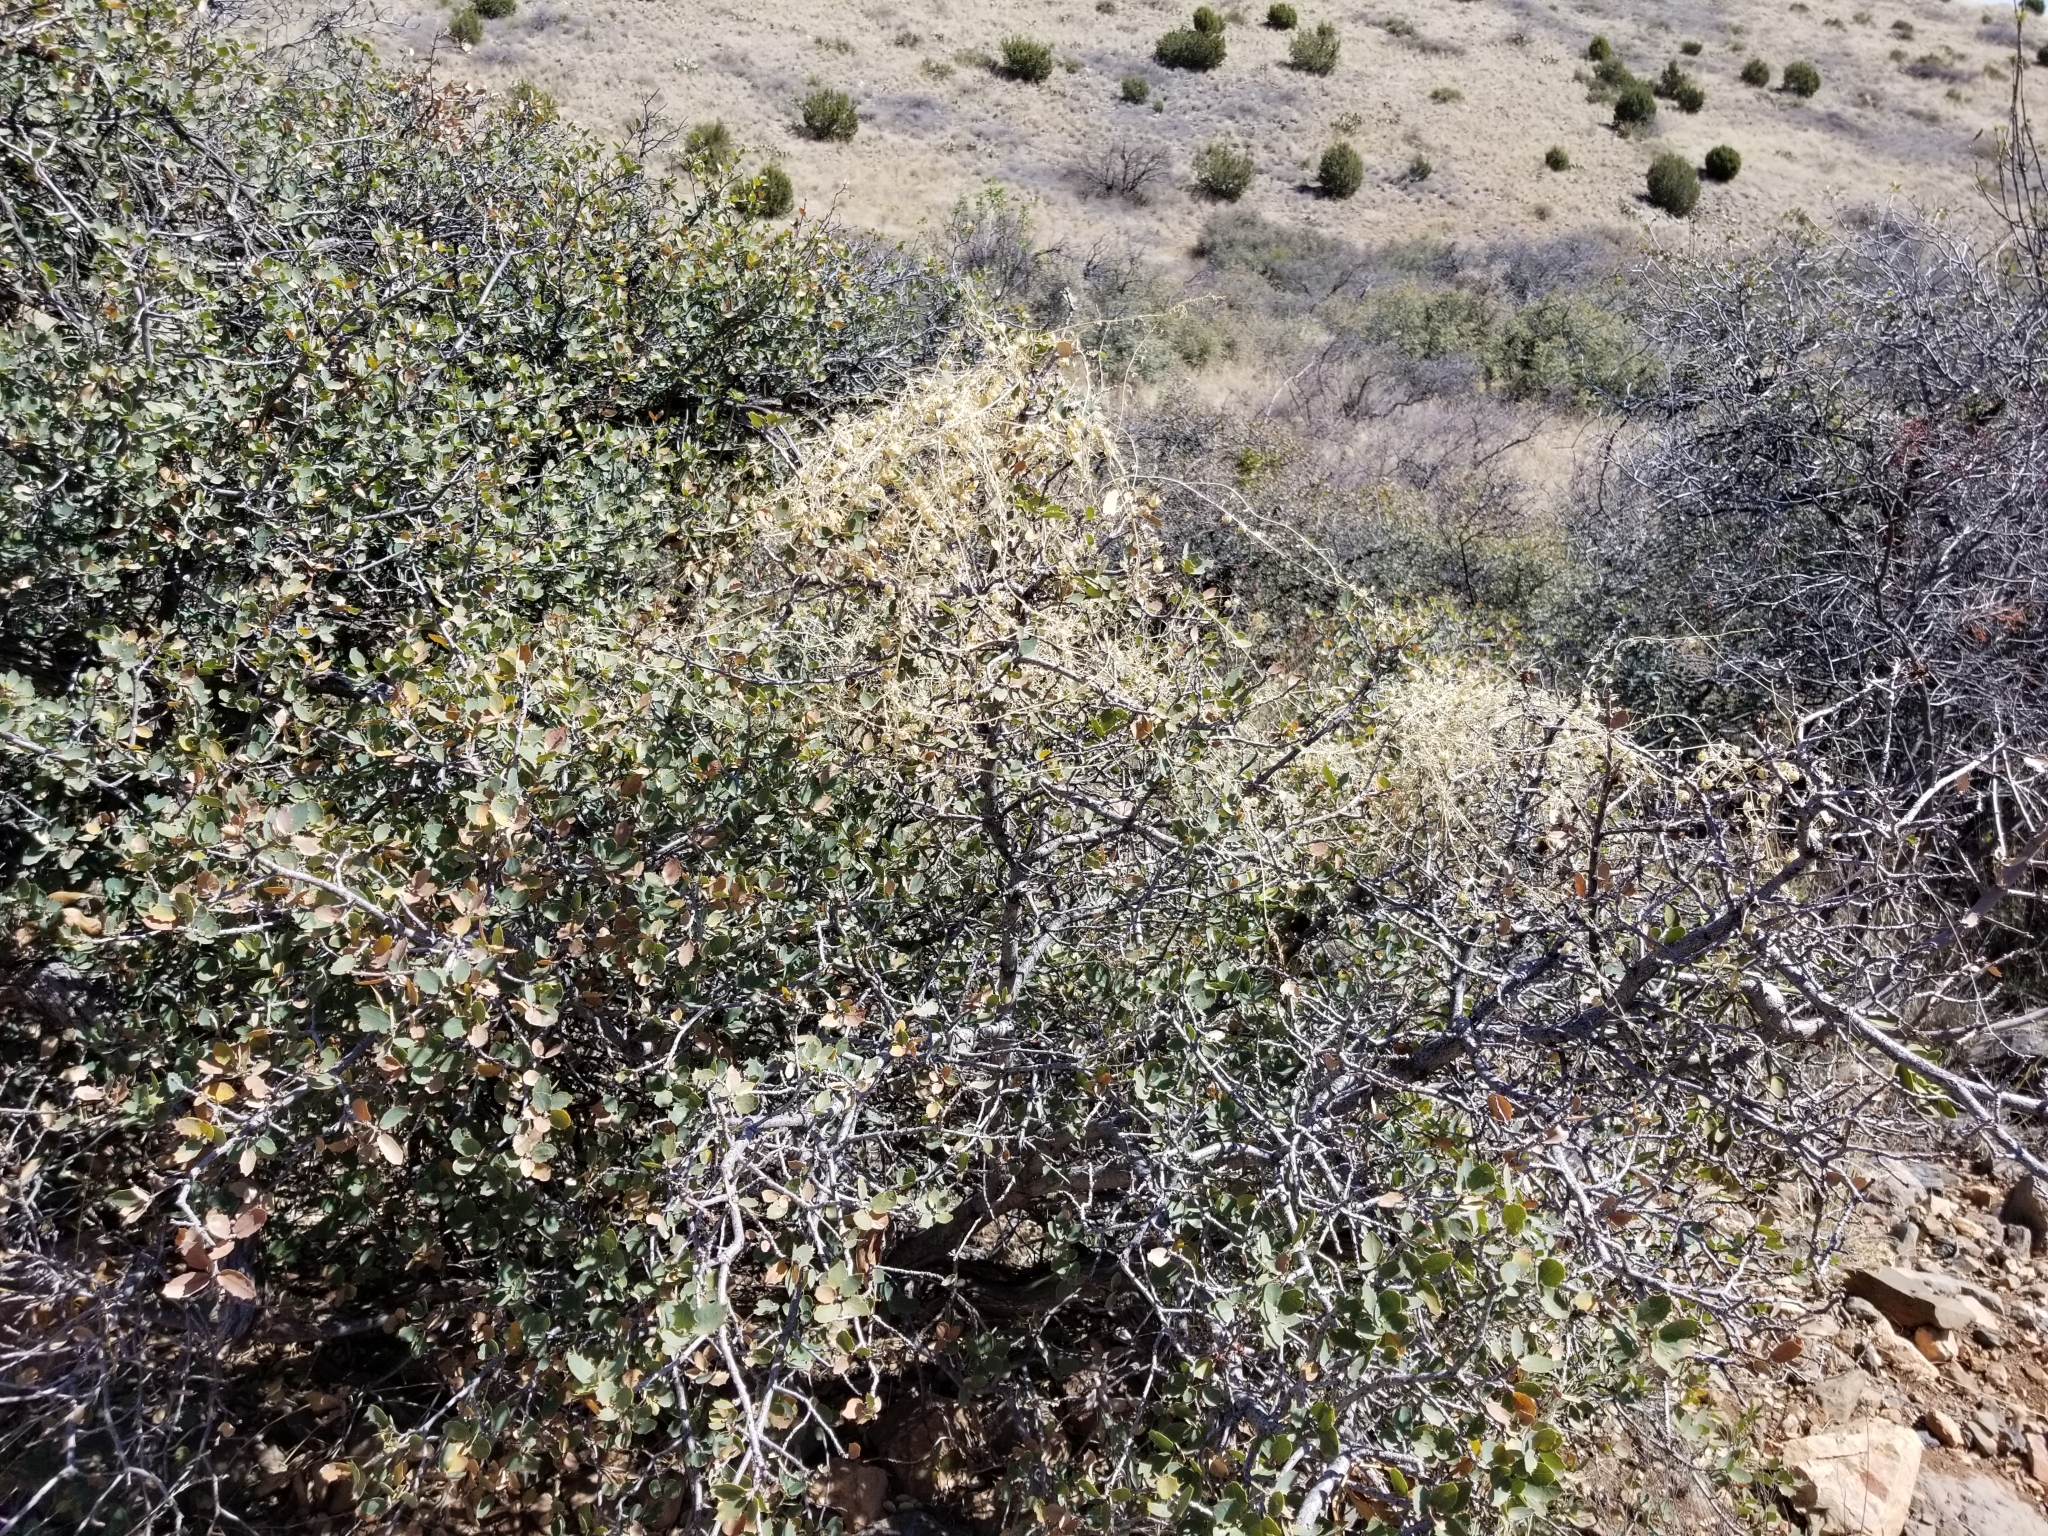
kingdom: Plantae
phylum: Tracheophyta
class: Magnoliopsida
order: Lamiales
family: Plantaginaceae
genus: Maurandella
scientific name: Maurandella antirrhiniflora
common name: Violet twining-snapdragon
